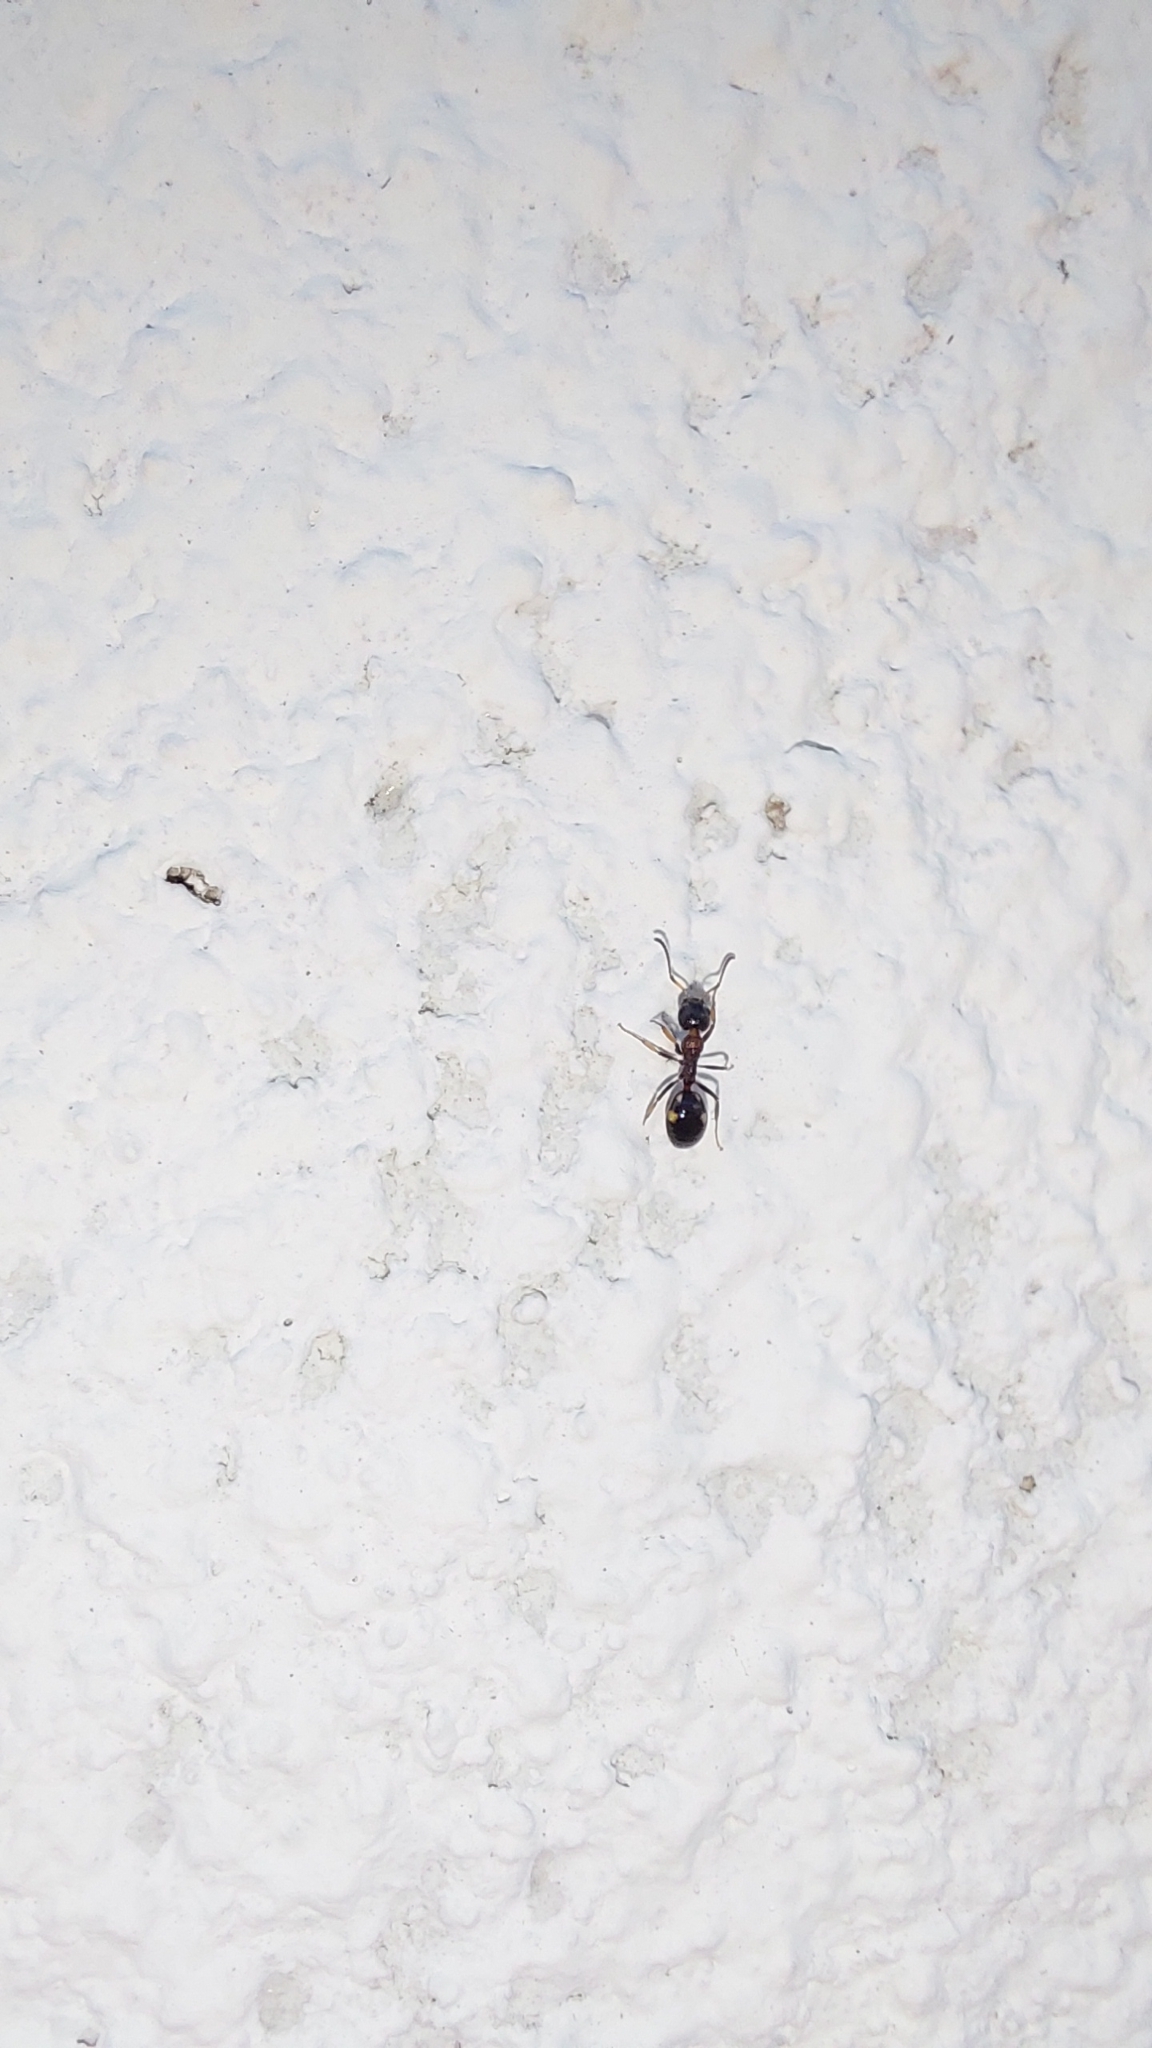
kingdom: Animalia
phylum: Arthropoda
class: Insecta
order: Hymenoptera
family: Formicidae
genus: Dolichoderus
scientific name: Dolichoderus quadripunctatus
